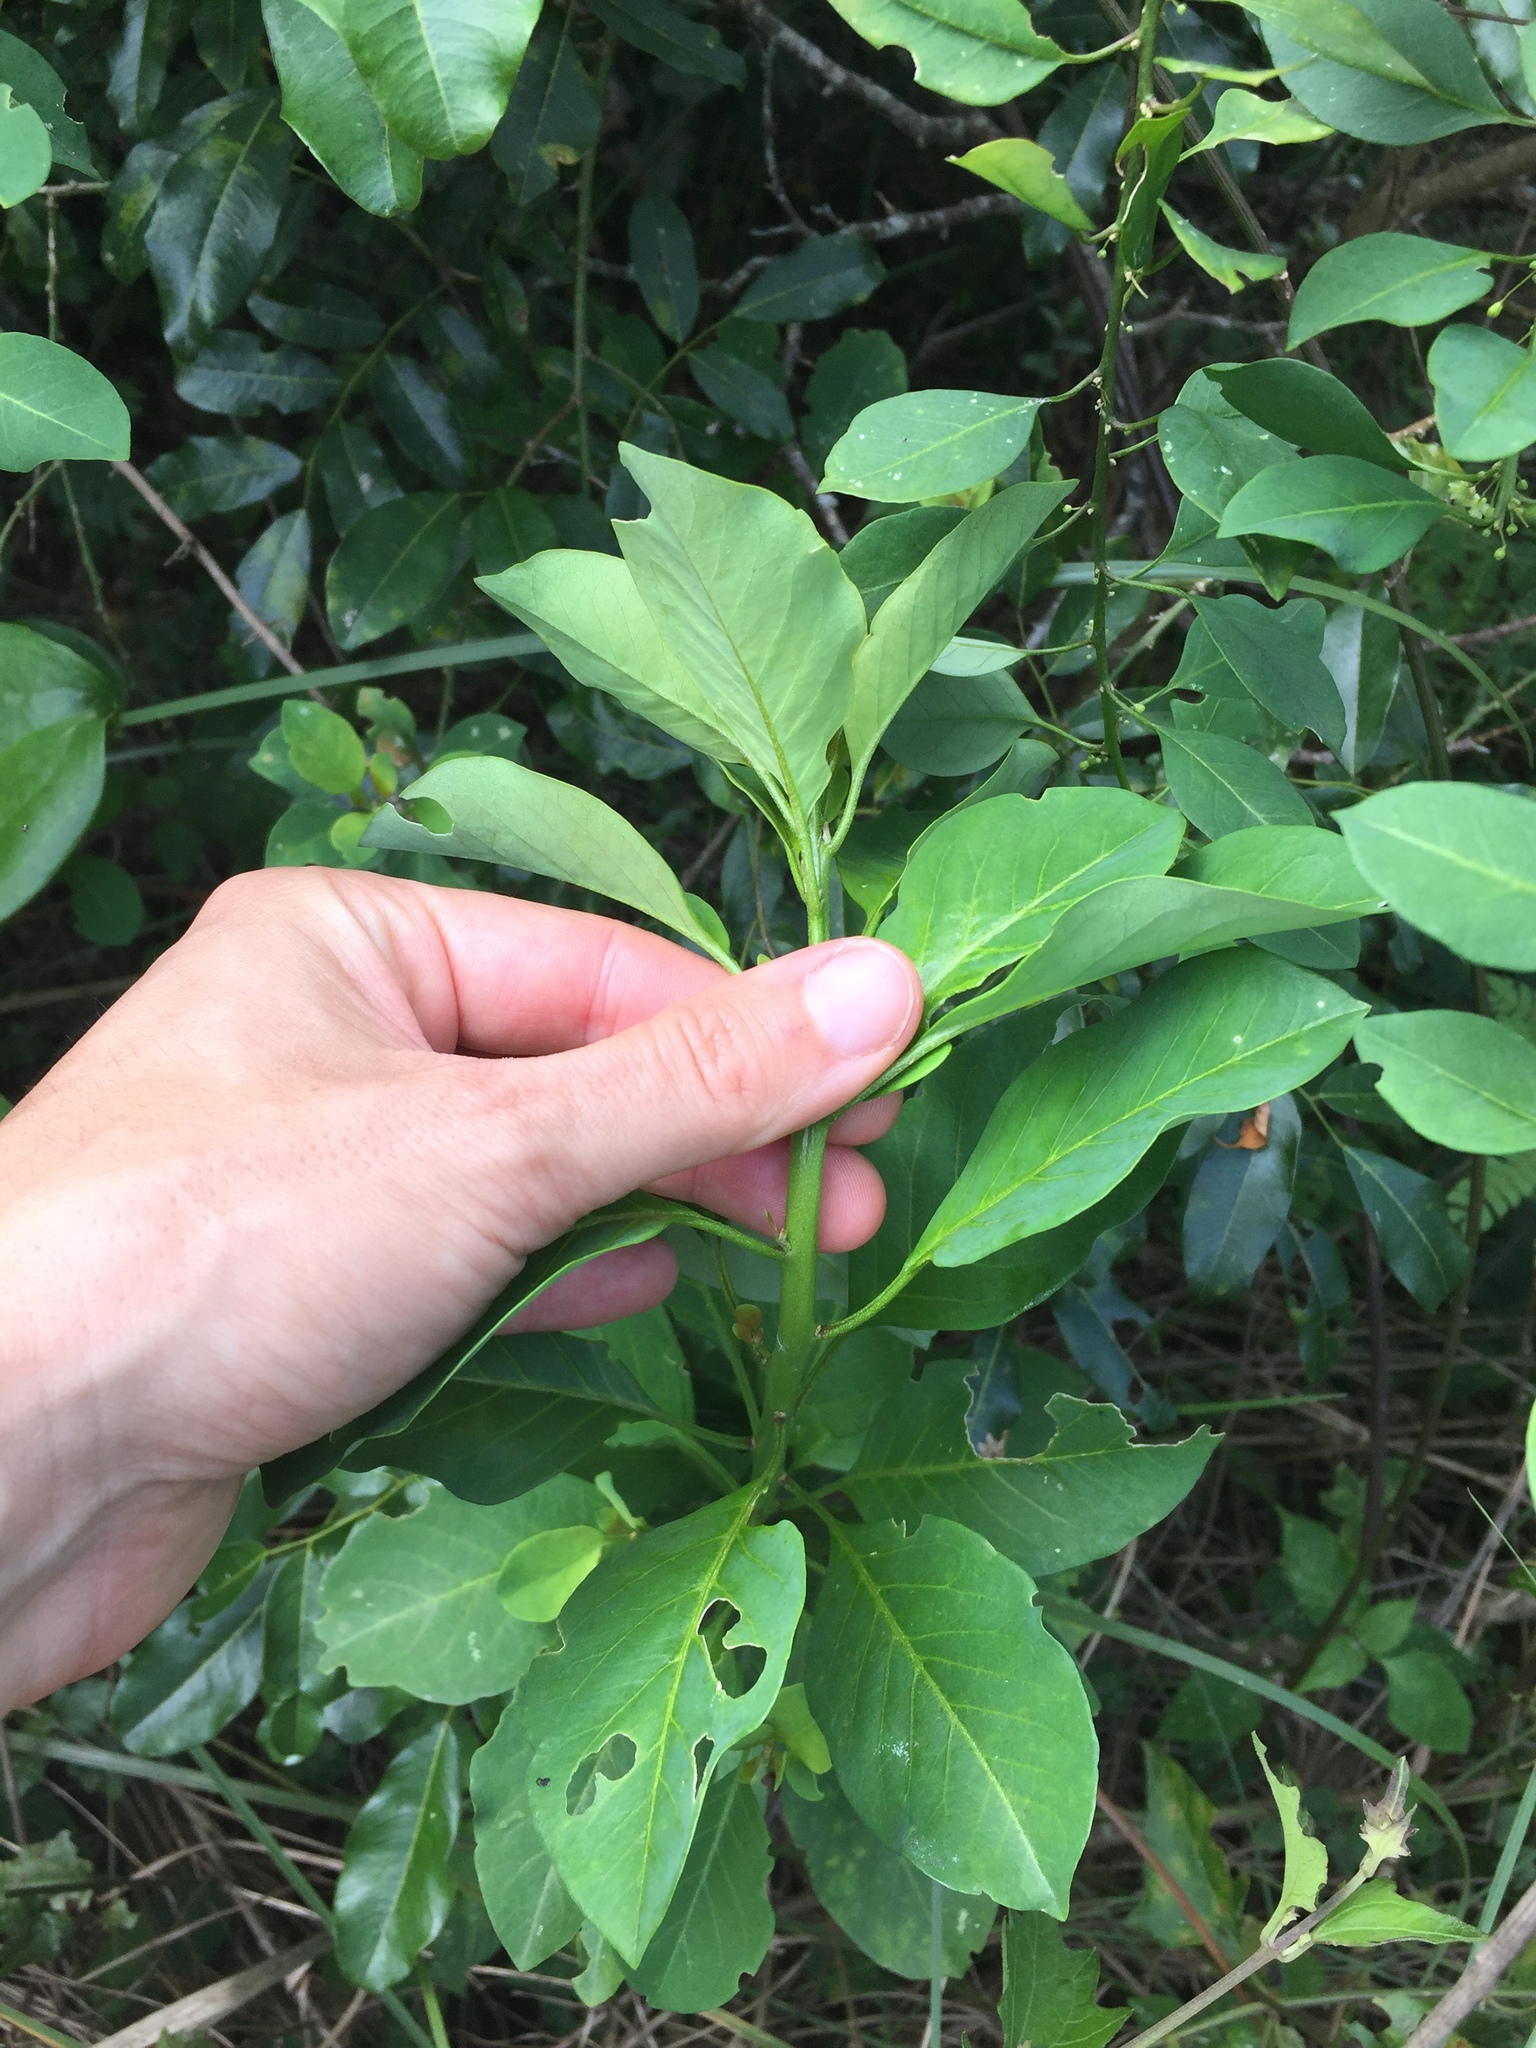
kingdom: Plantae
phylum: Tracheophyta
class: Magnoliopsida
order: Malpighiales
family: Peraceae
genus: Clutia
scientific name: Clutia pulchella
